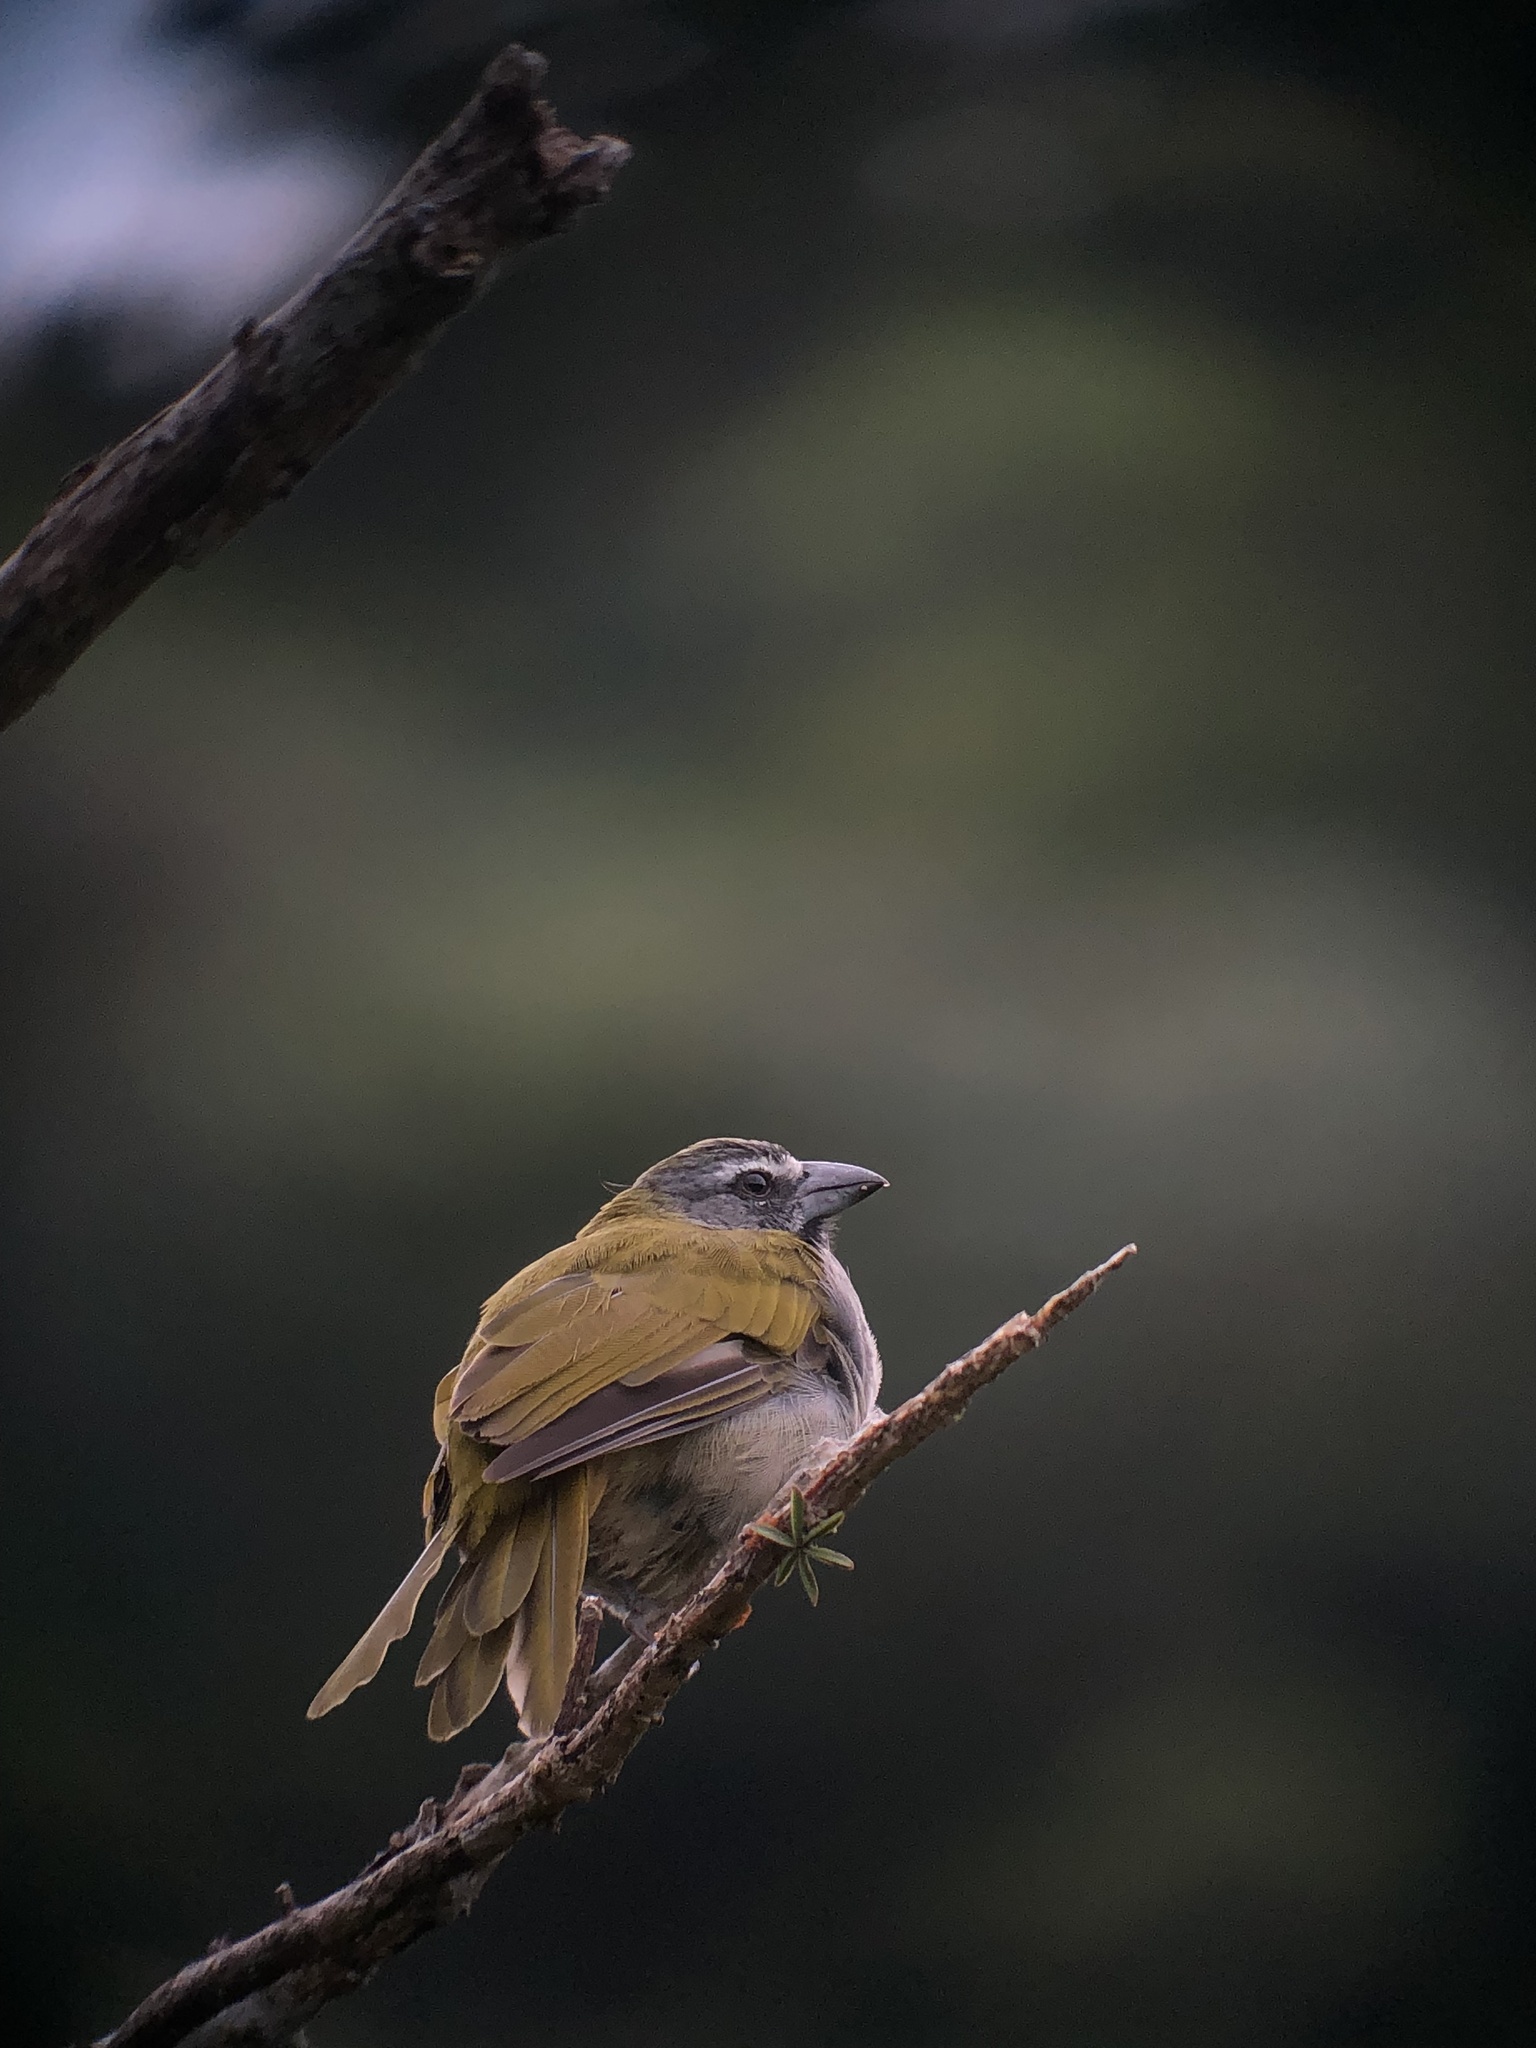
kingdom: Animalia
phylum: Chordata
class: Aves
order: Passeriformes
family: Thraupidae
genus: Saltator
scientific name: Saltator maximus
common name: Buff-throated saltator
